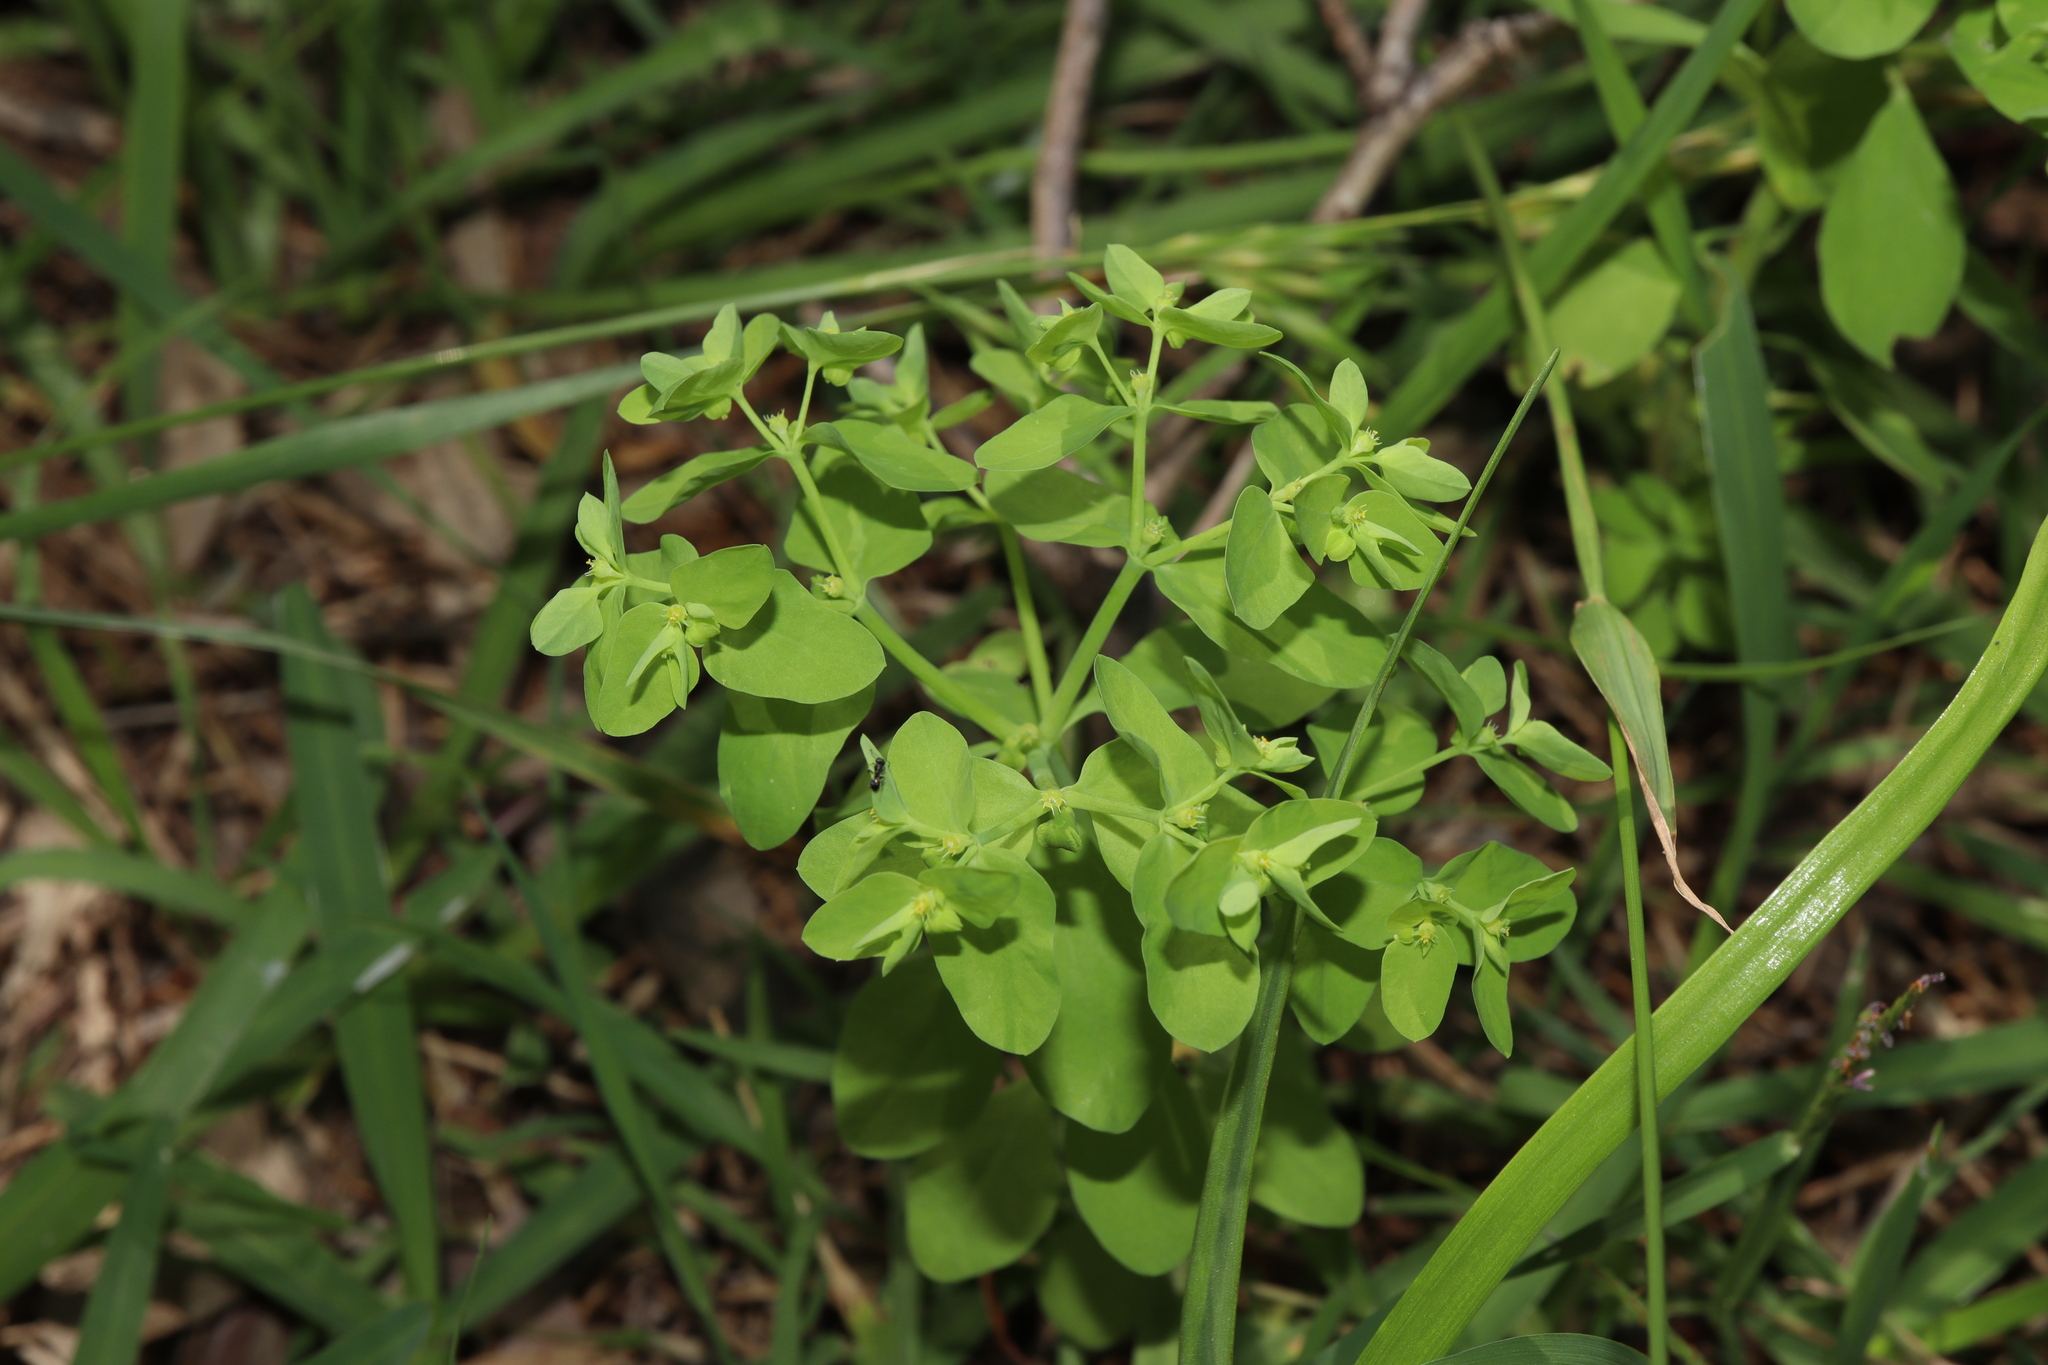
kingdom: Plantae
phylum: Tracheophyta
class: Magnoliopsida
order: Malpighiales
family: Euphorbiaceae
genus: Euphorbia
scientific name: Euphorbia peplus
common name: Petty spurge
